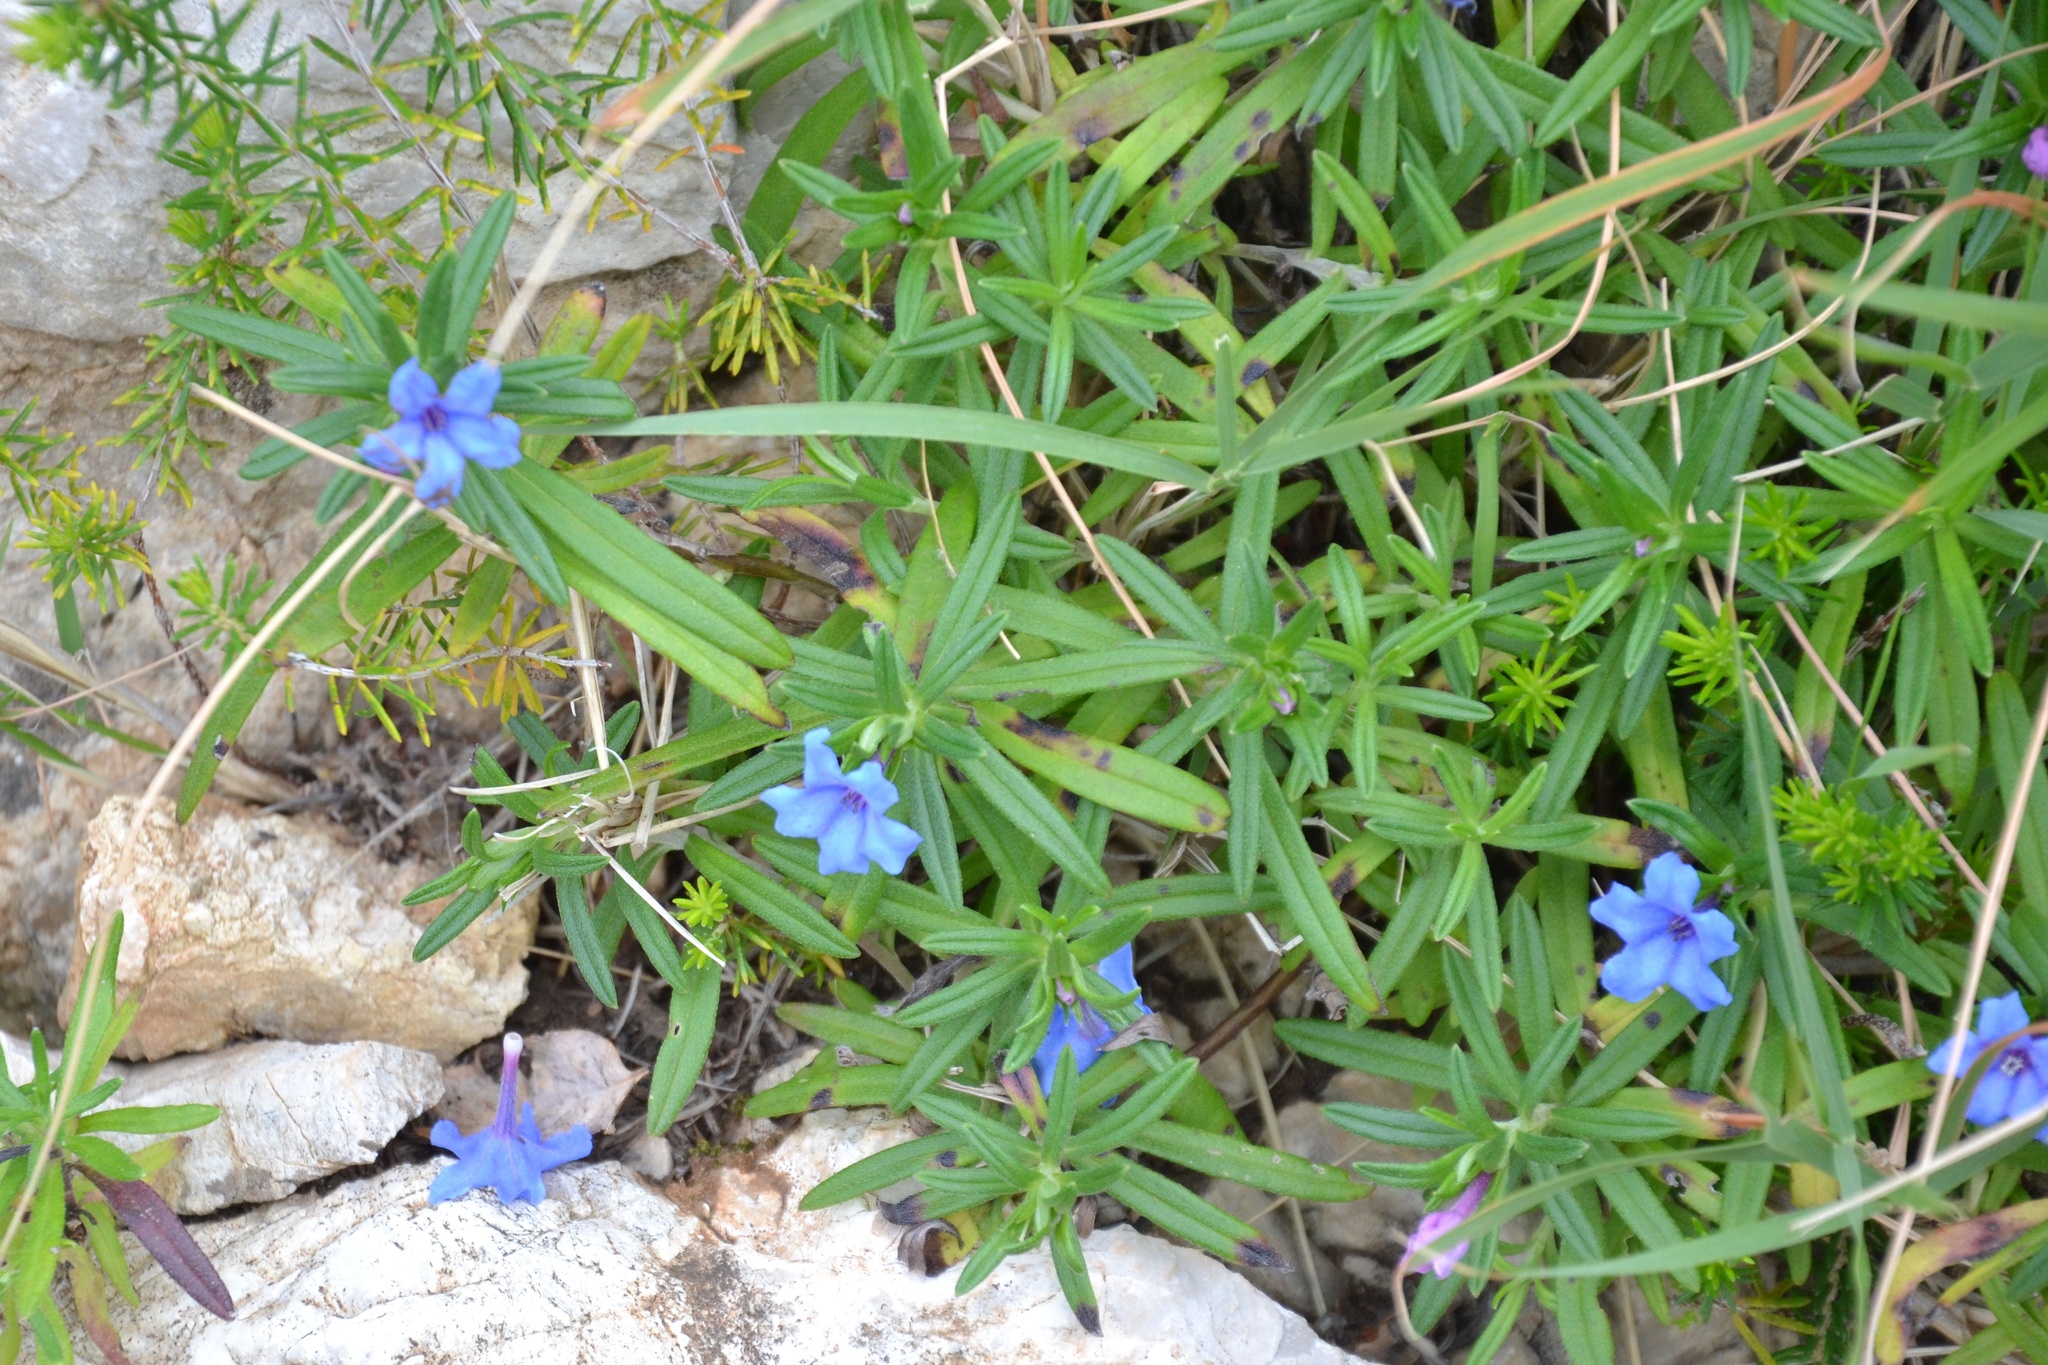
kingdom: Plantae
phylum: Tracheophyta
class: Magnoliopsida
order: Boraginales
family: Boraginaceae
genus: Aegonychon
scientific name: Aegonychon purpurocaeruleum
